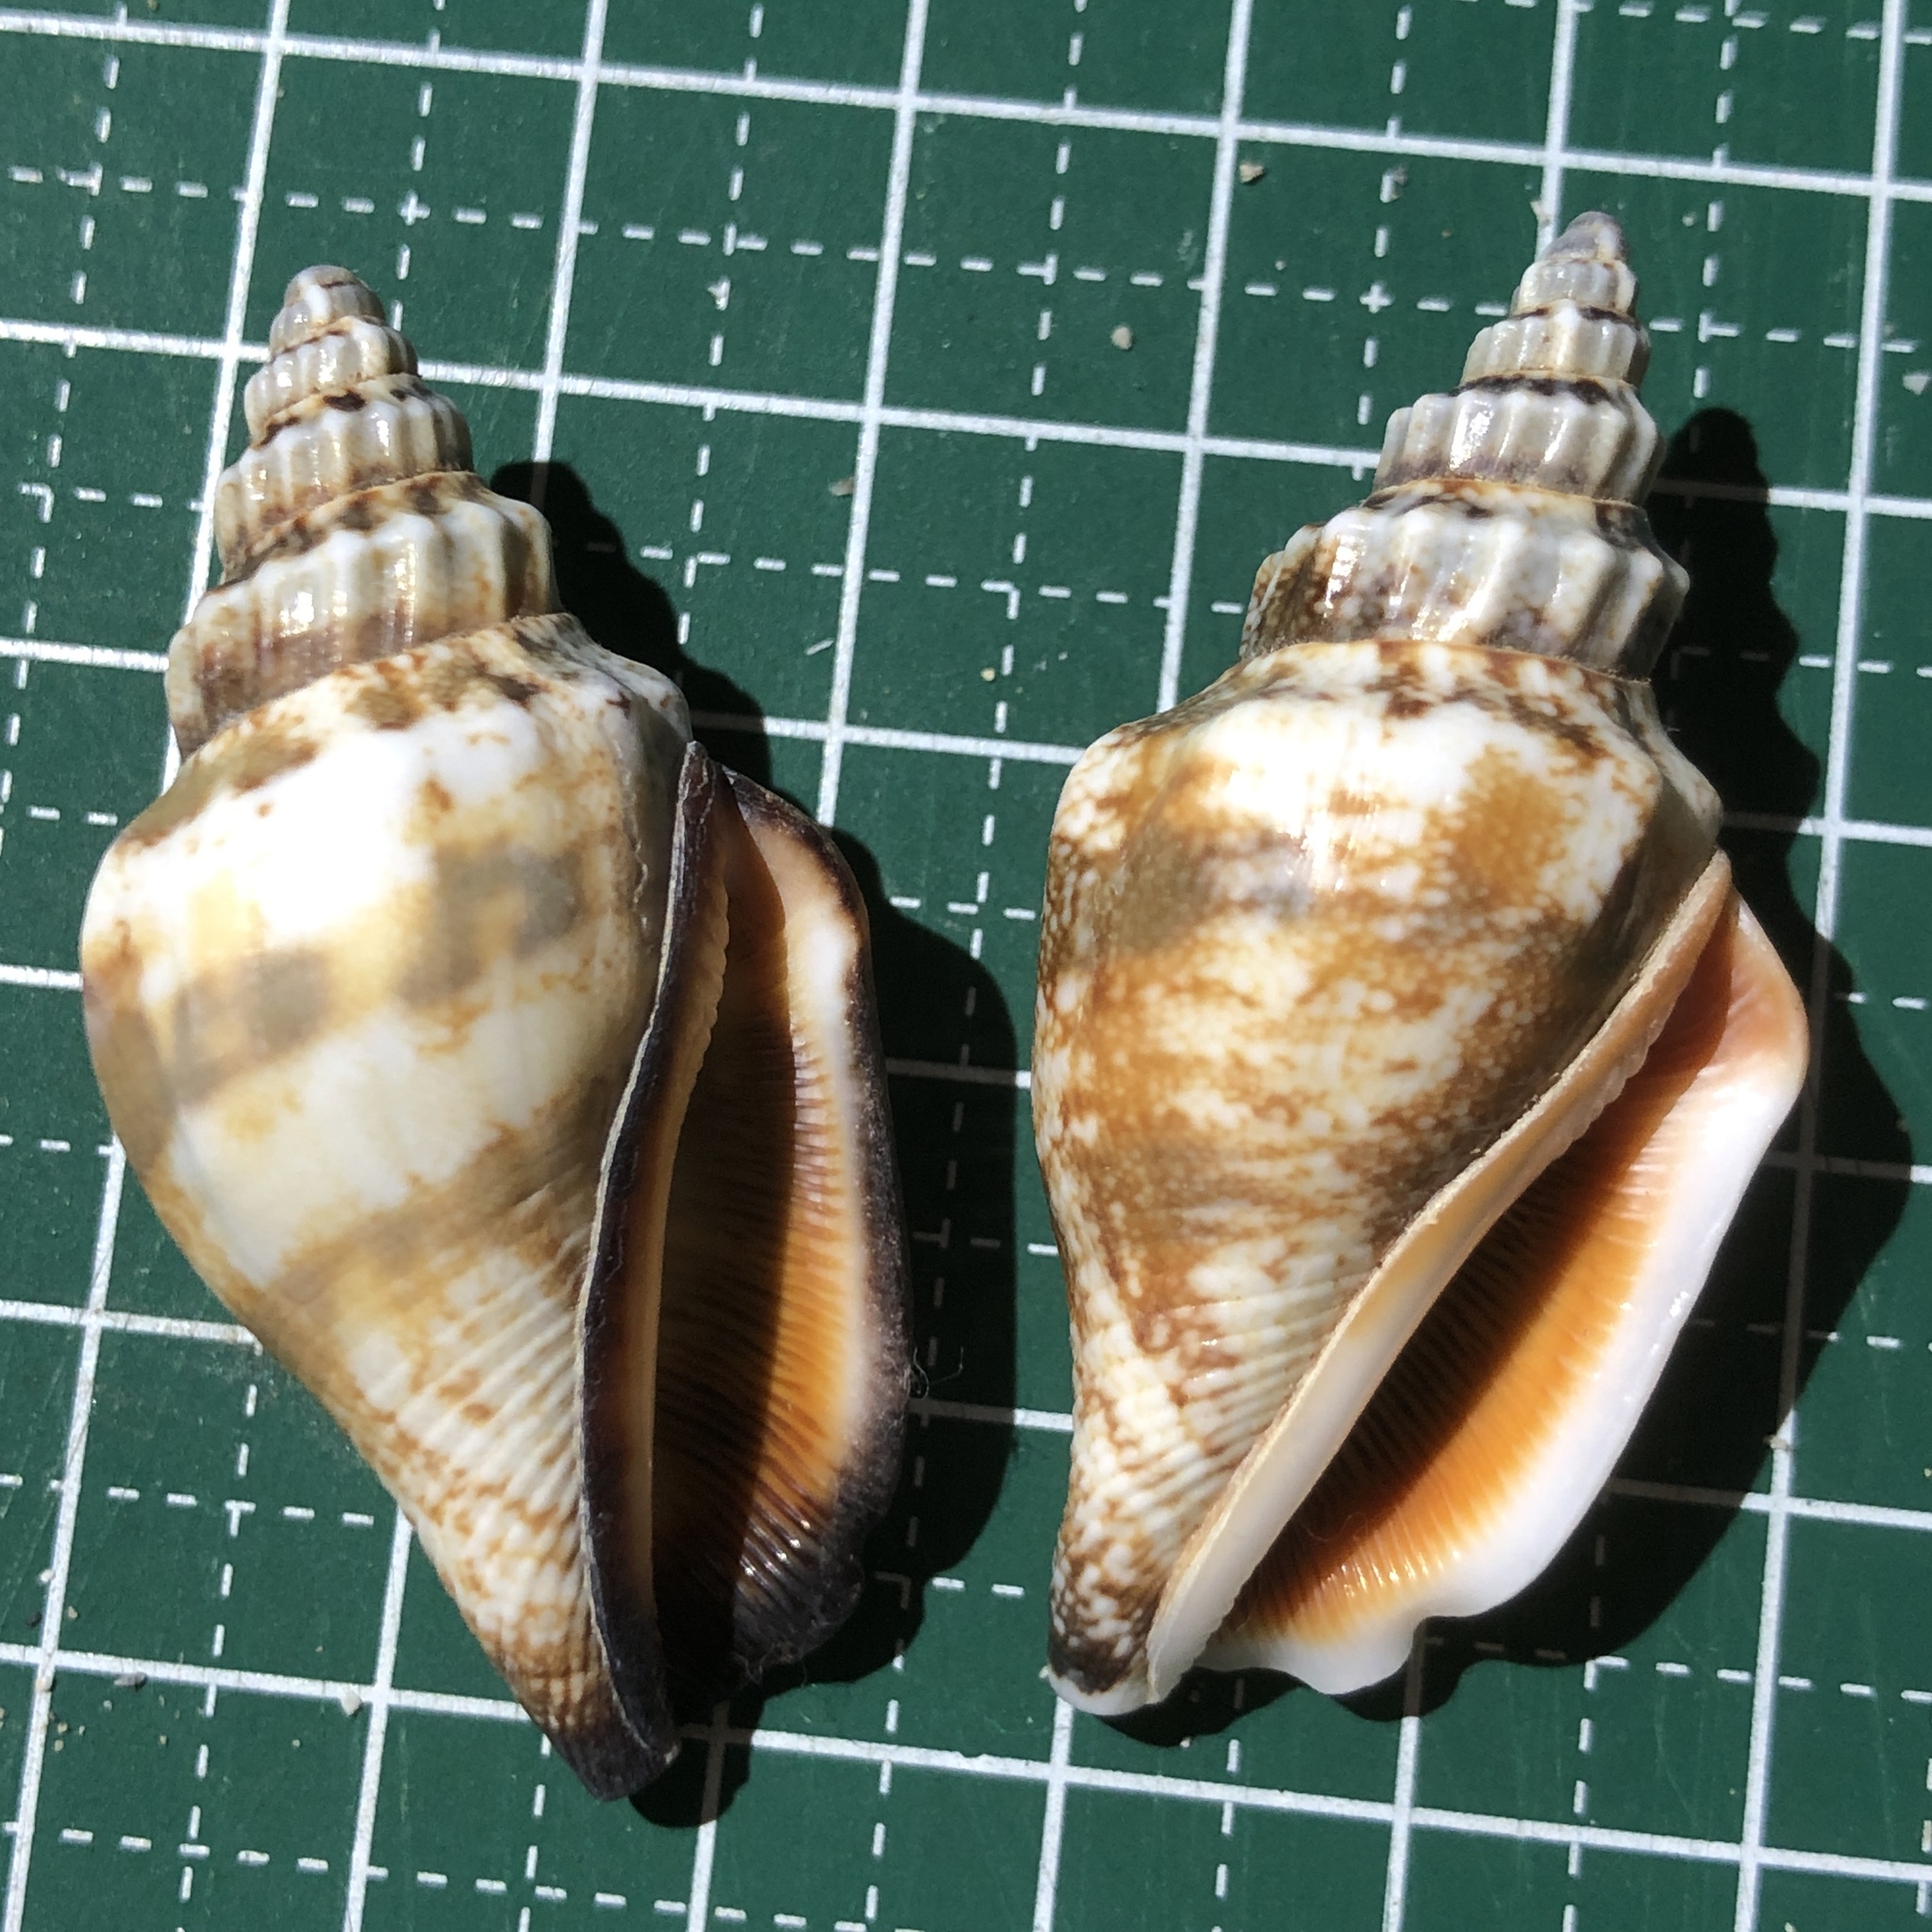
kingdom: Animalia
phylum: Mollusca
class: Gastropoda
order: Littorinimorpha
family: Strombidae
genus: Canarium
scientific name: Canarium urceus
